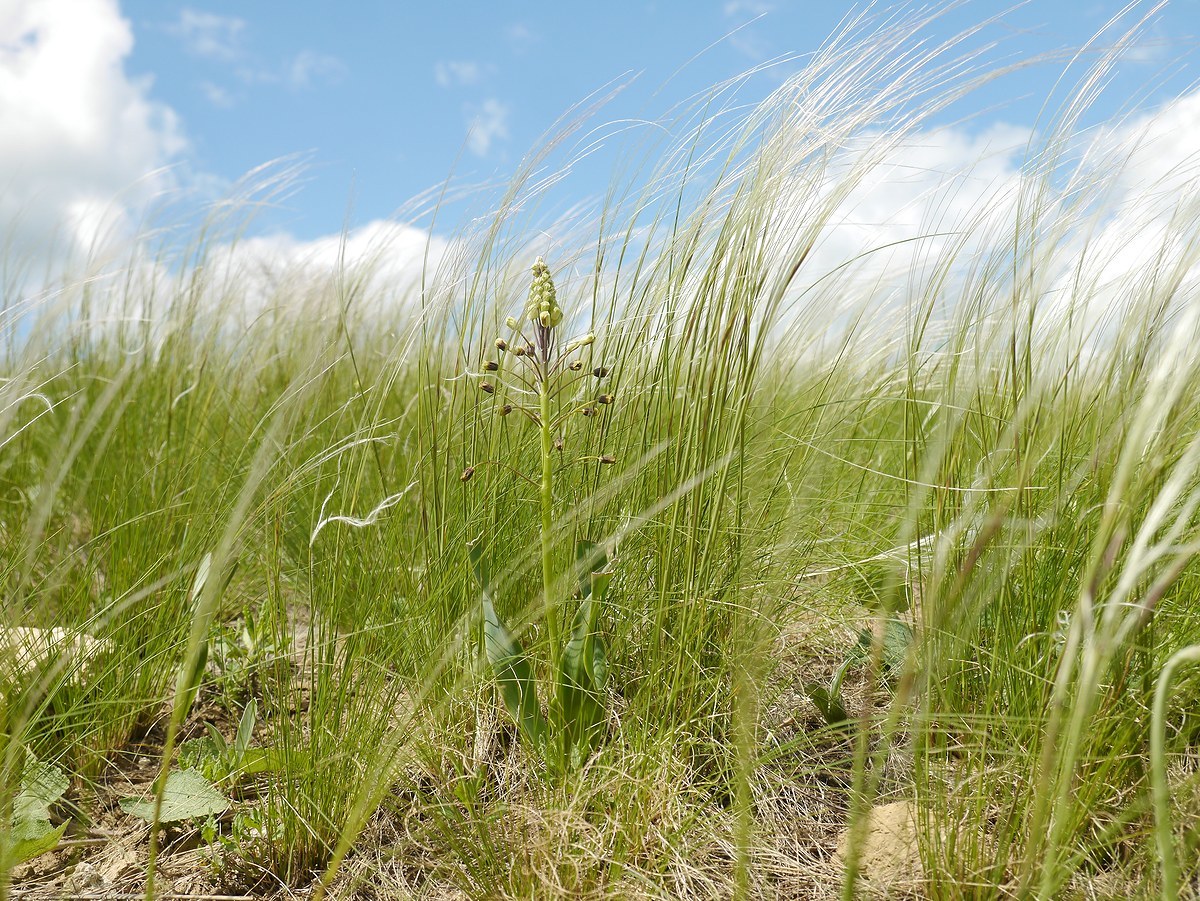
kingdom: Plantae
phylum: Tracheophyta
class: Liliopsida
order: Asparagales
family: Asparagaceae
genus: Bellevalia
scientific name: Bellevalia speciosa
